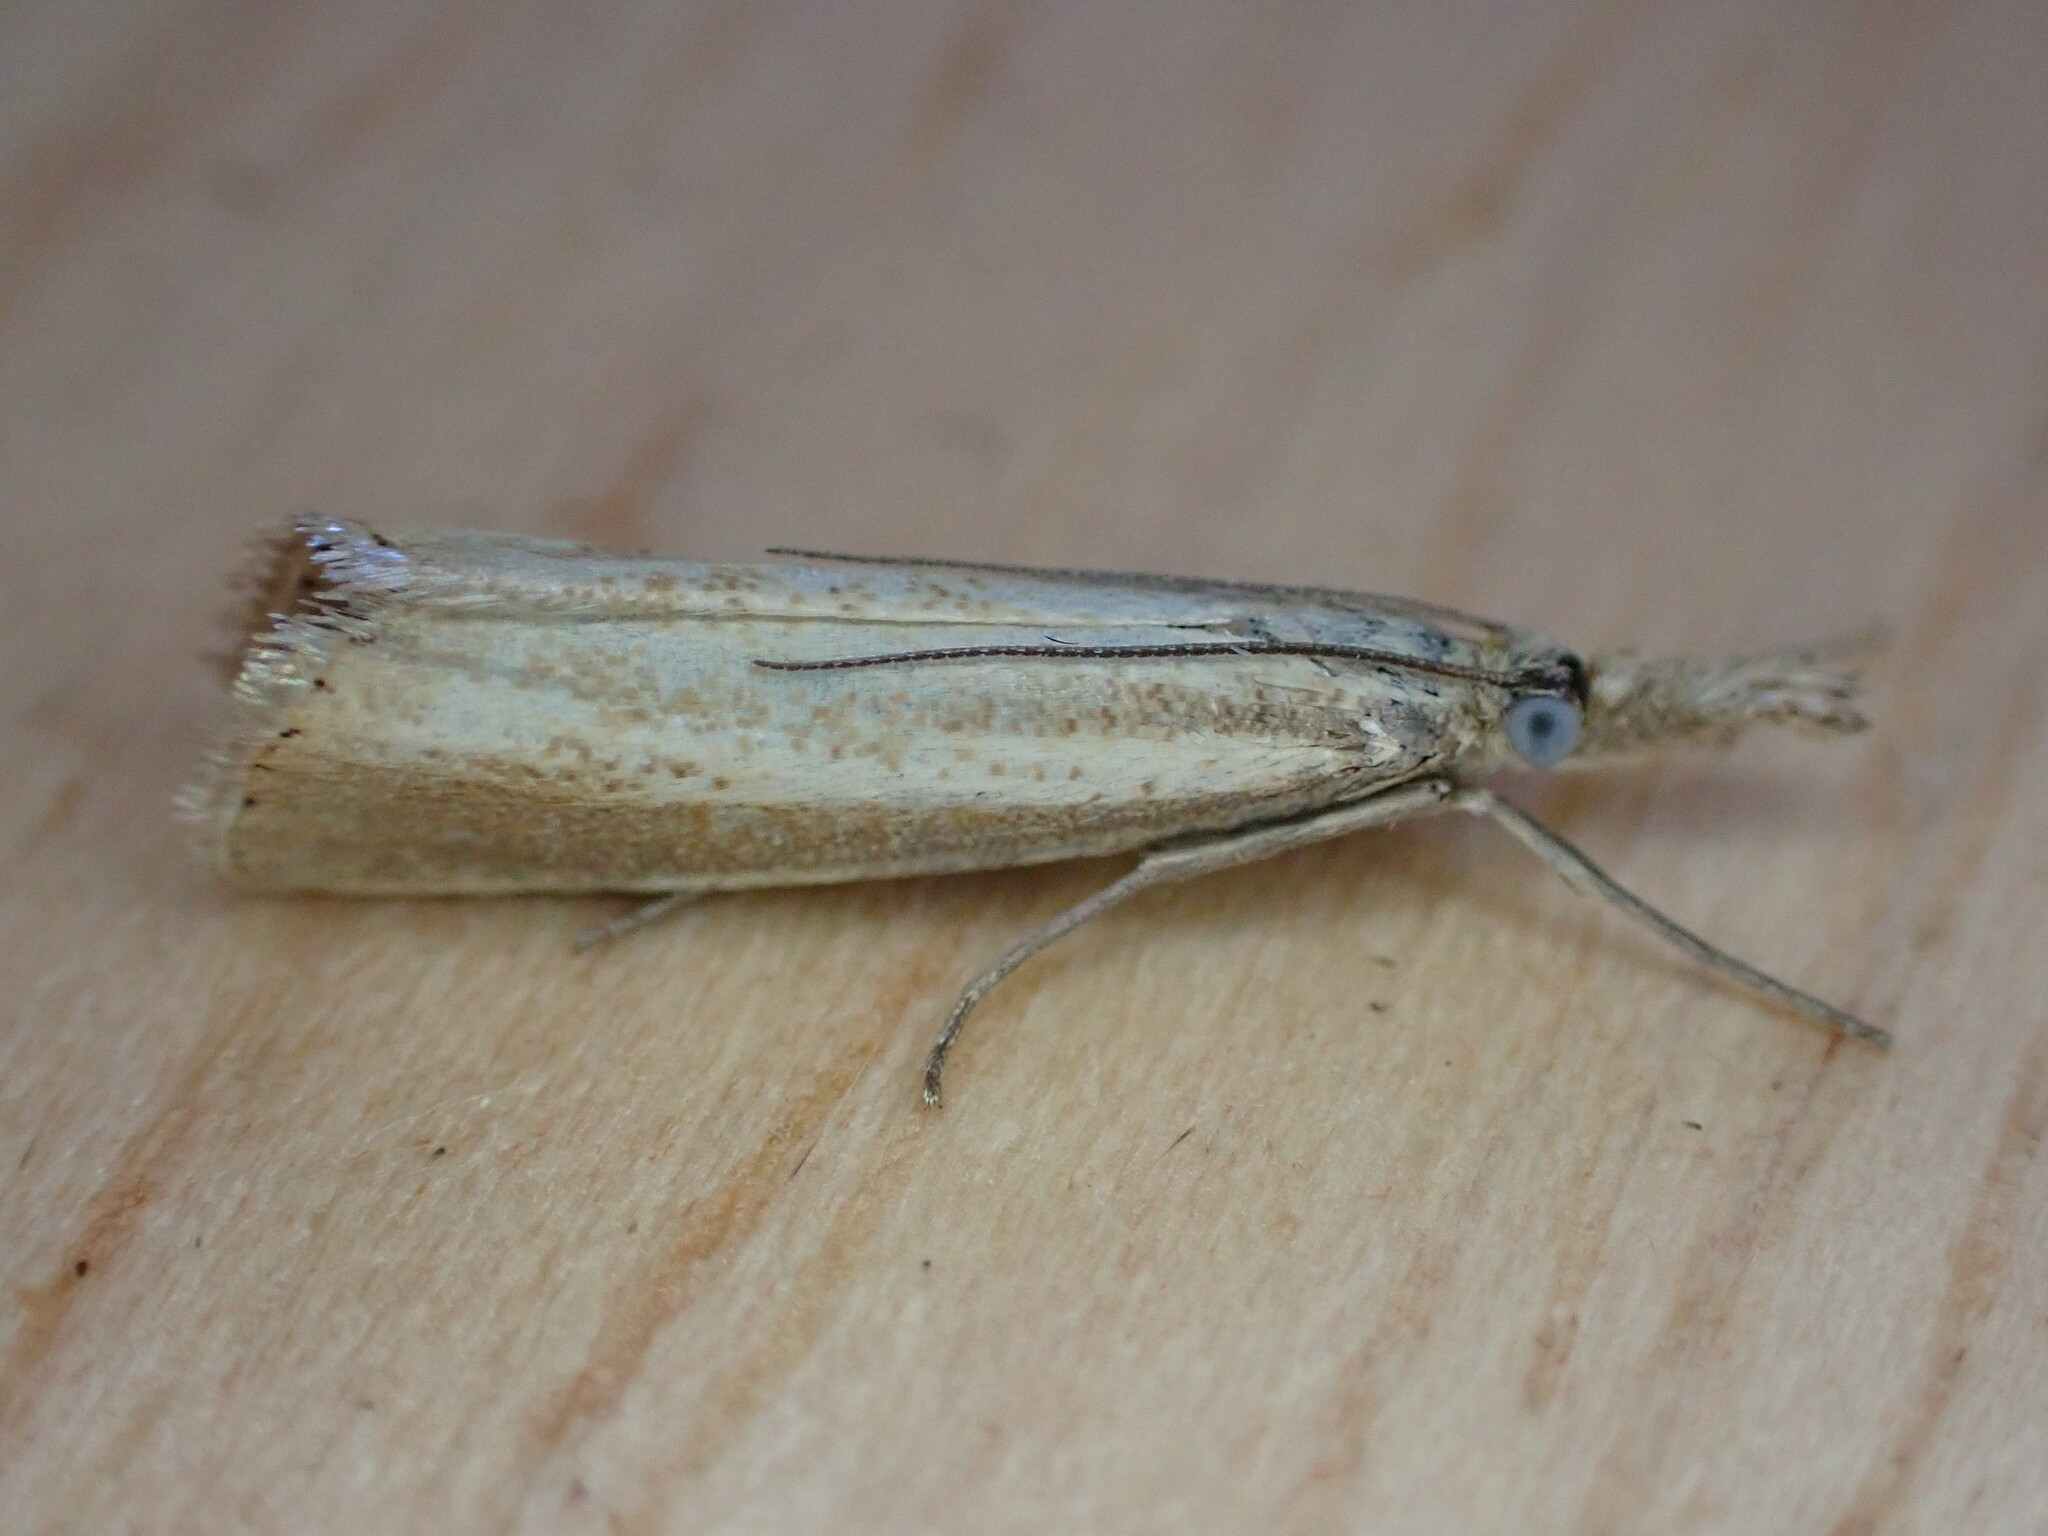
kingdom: Animalia
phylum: Arthropoda
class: Insecta
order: Lepidoptera
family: Crambidae
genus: Agriphila
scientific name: Agriphila straminella
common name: Straw grass-veneer
